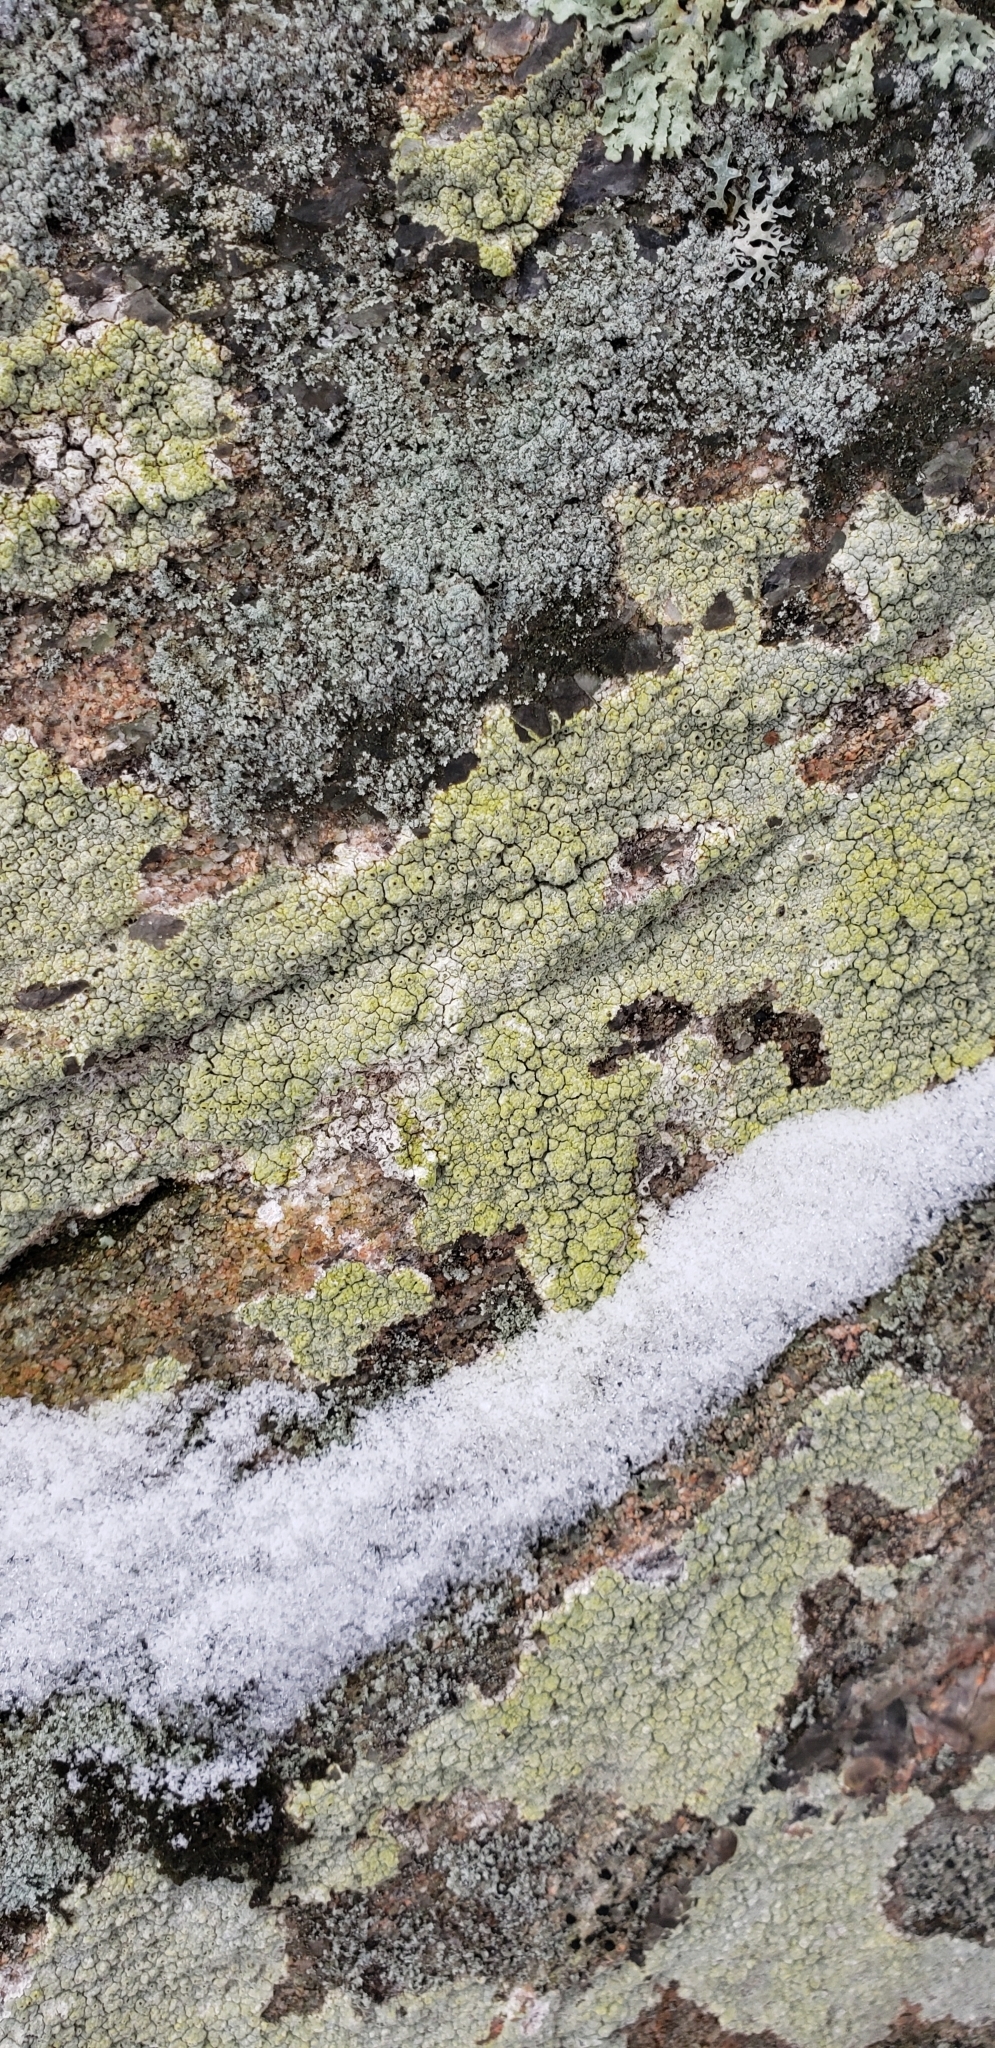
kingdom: Fungi
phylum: Ascomycota
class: Lecanoromycetes
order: Ostropales
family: Graphidaceae
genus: Diploschistes
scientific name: Diploschistes scruposus
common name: Crater lichen
